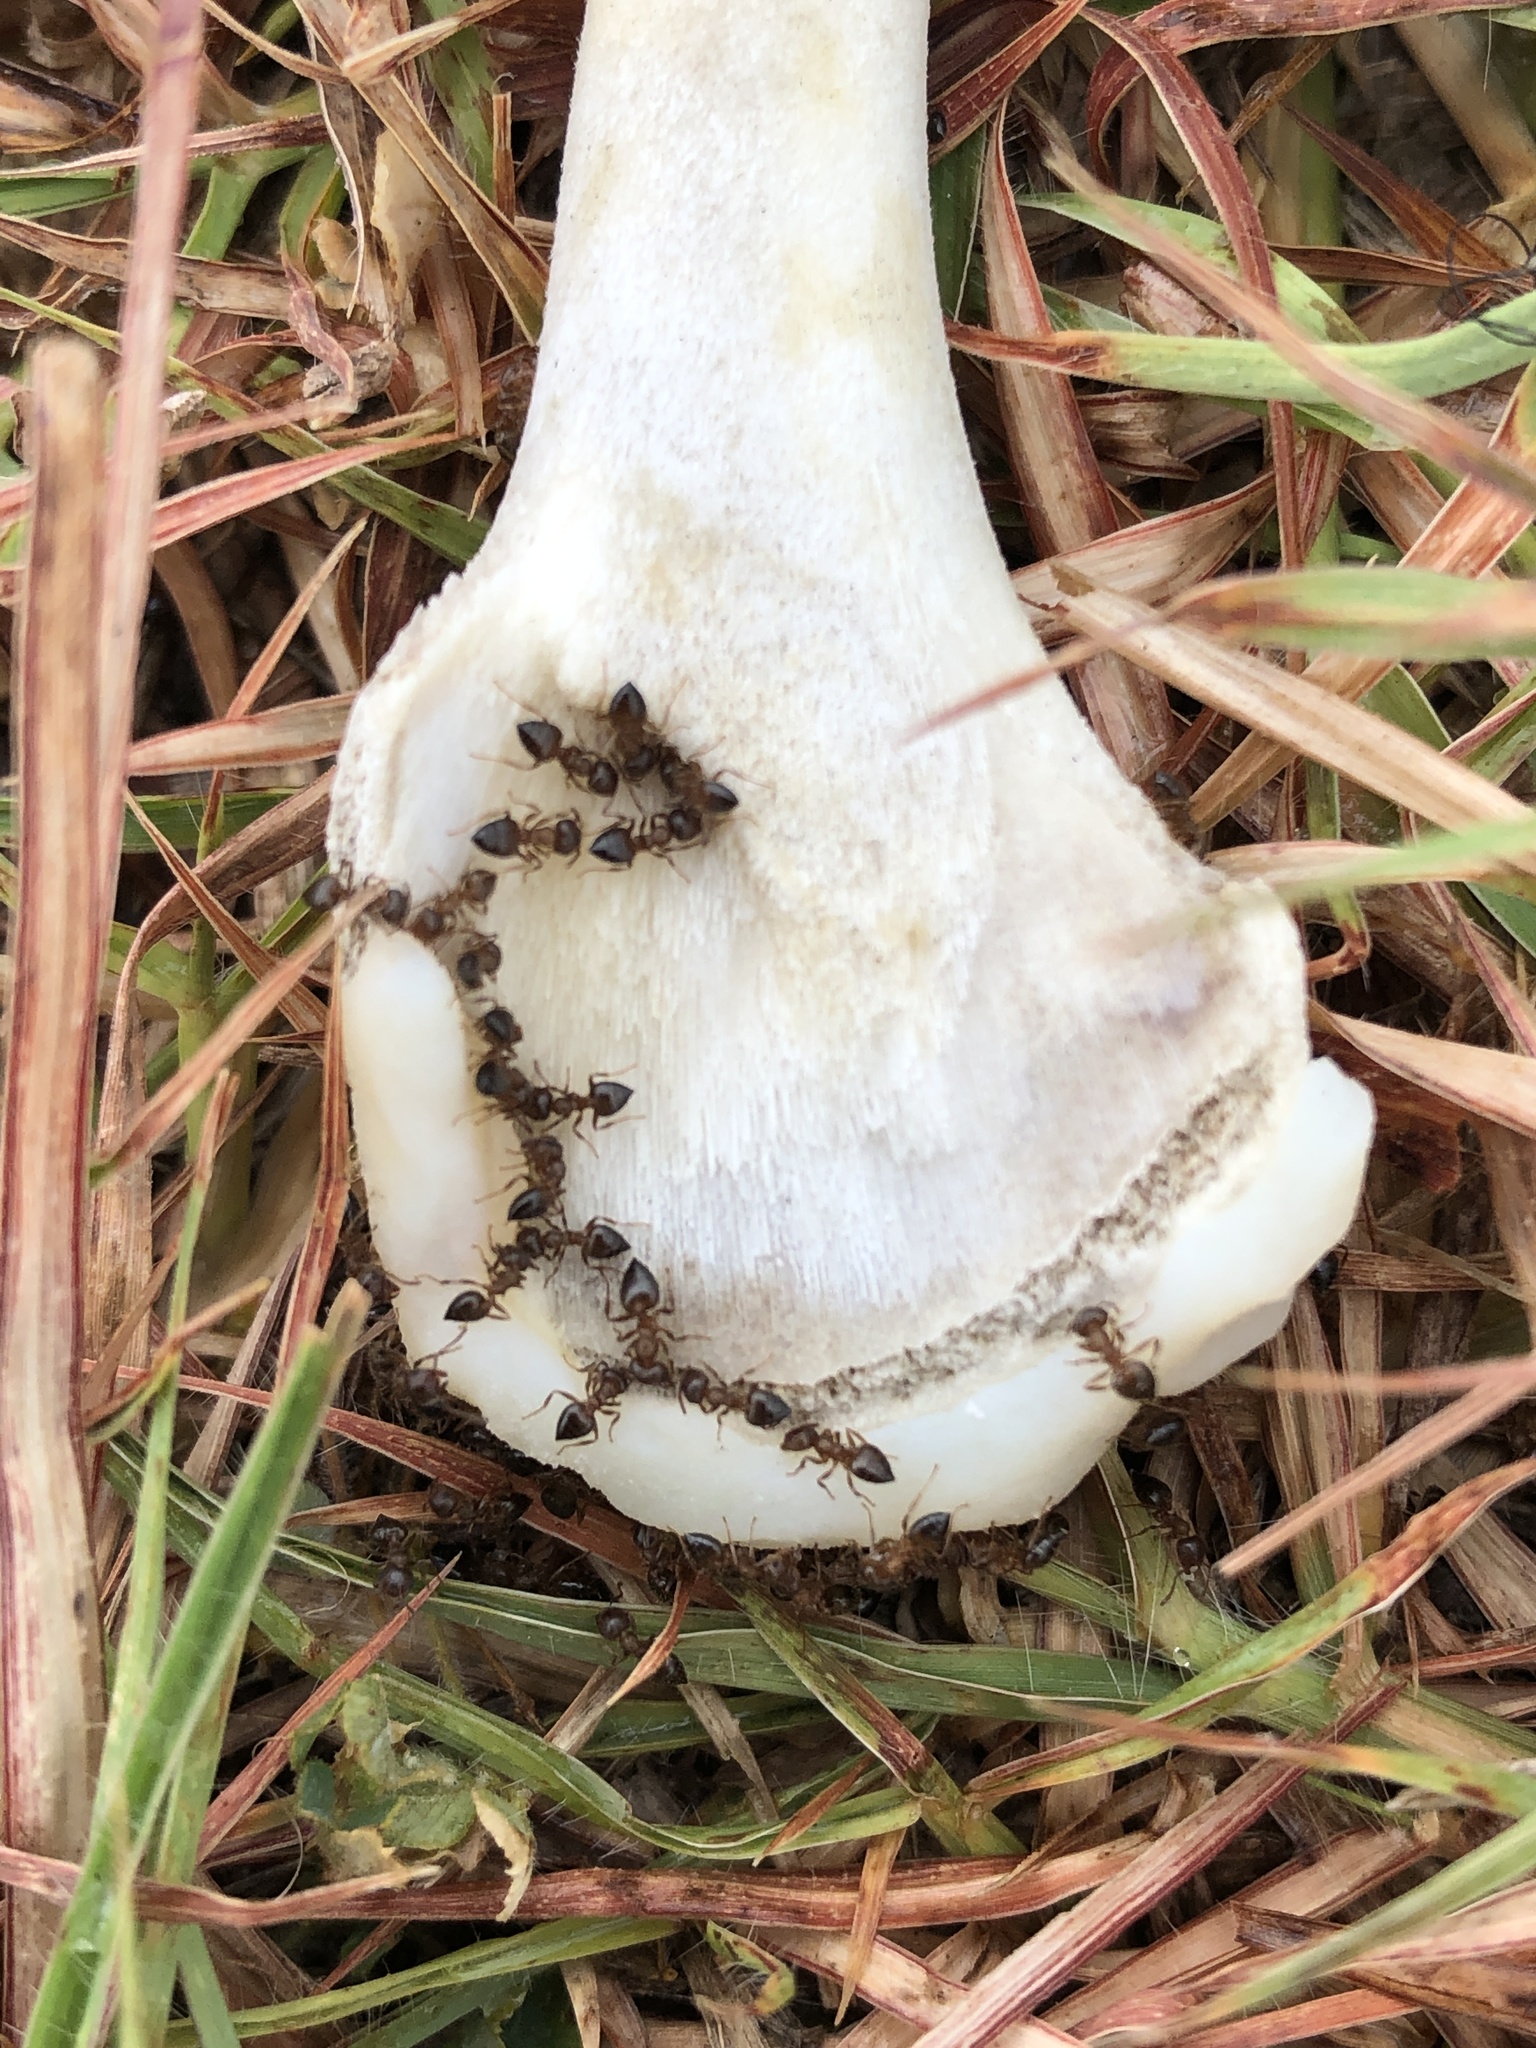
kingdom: Animalia
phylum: Arthropoda
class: Insecta
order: Hymenoptera
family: Formicidae
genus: Crematogaster
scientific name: Crematogaster laeviuscula
